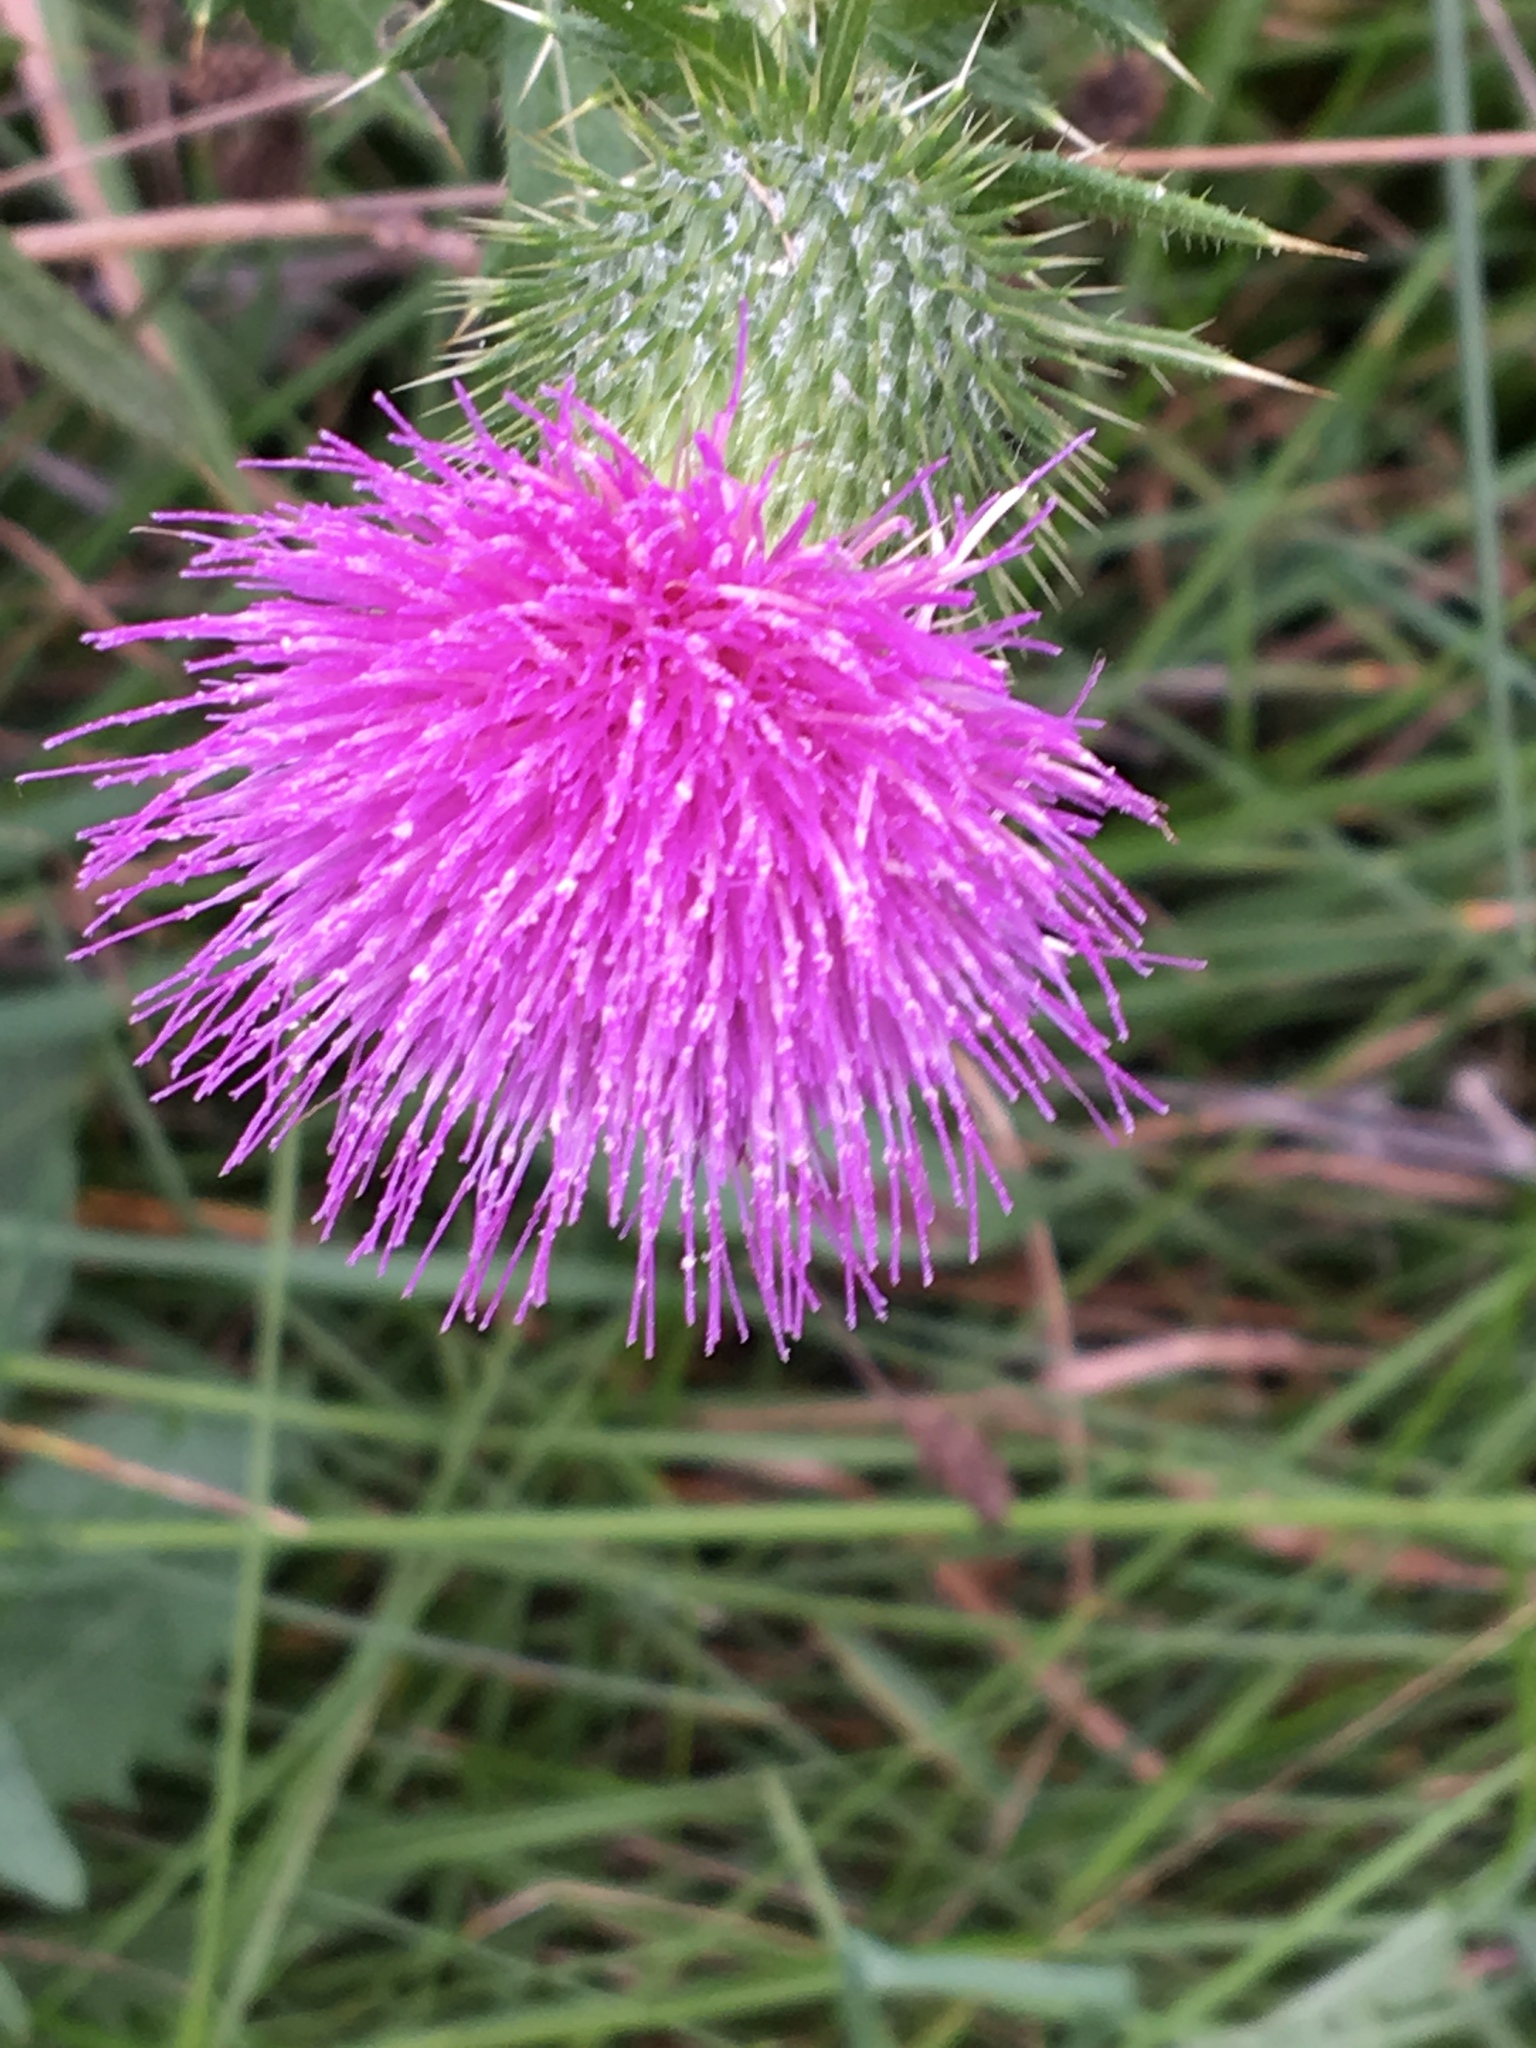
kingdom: Plantae
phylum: Tracheophyta
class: Magnoliopsida
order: Asterales
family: Asteraceae
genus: Cirsium
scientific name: Cirsium vulgare
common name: Bull thistle
